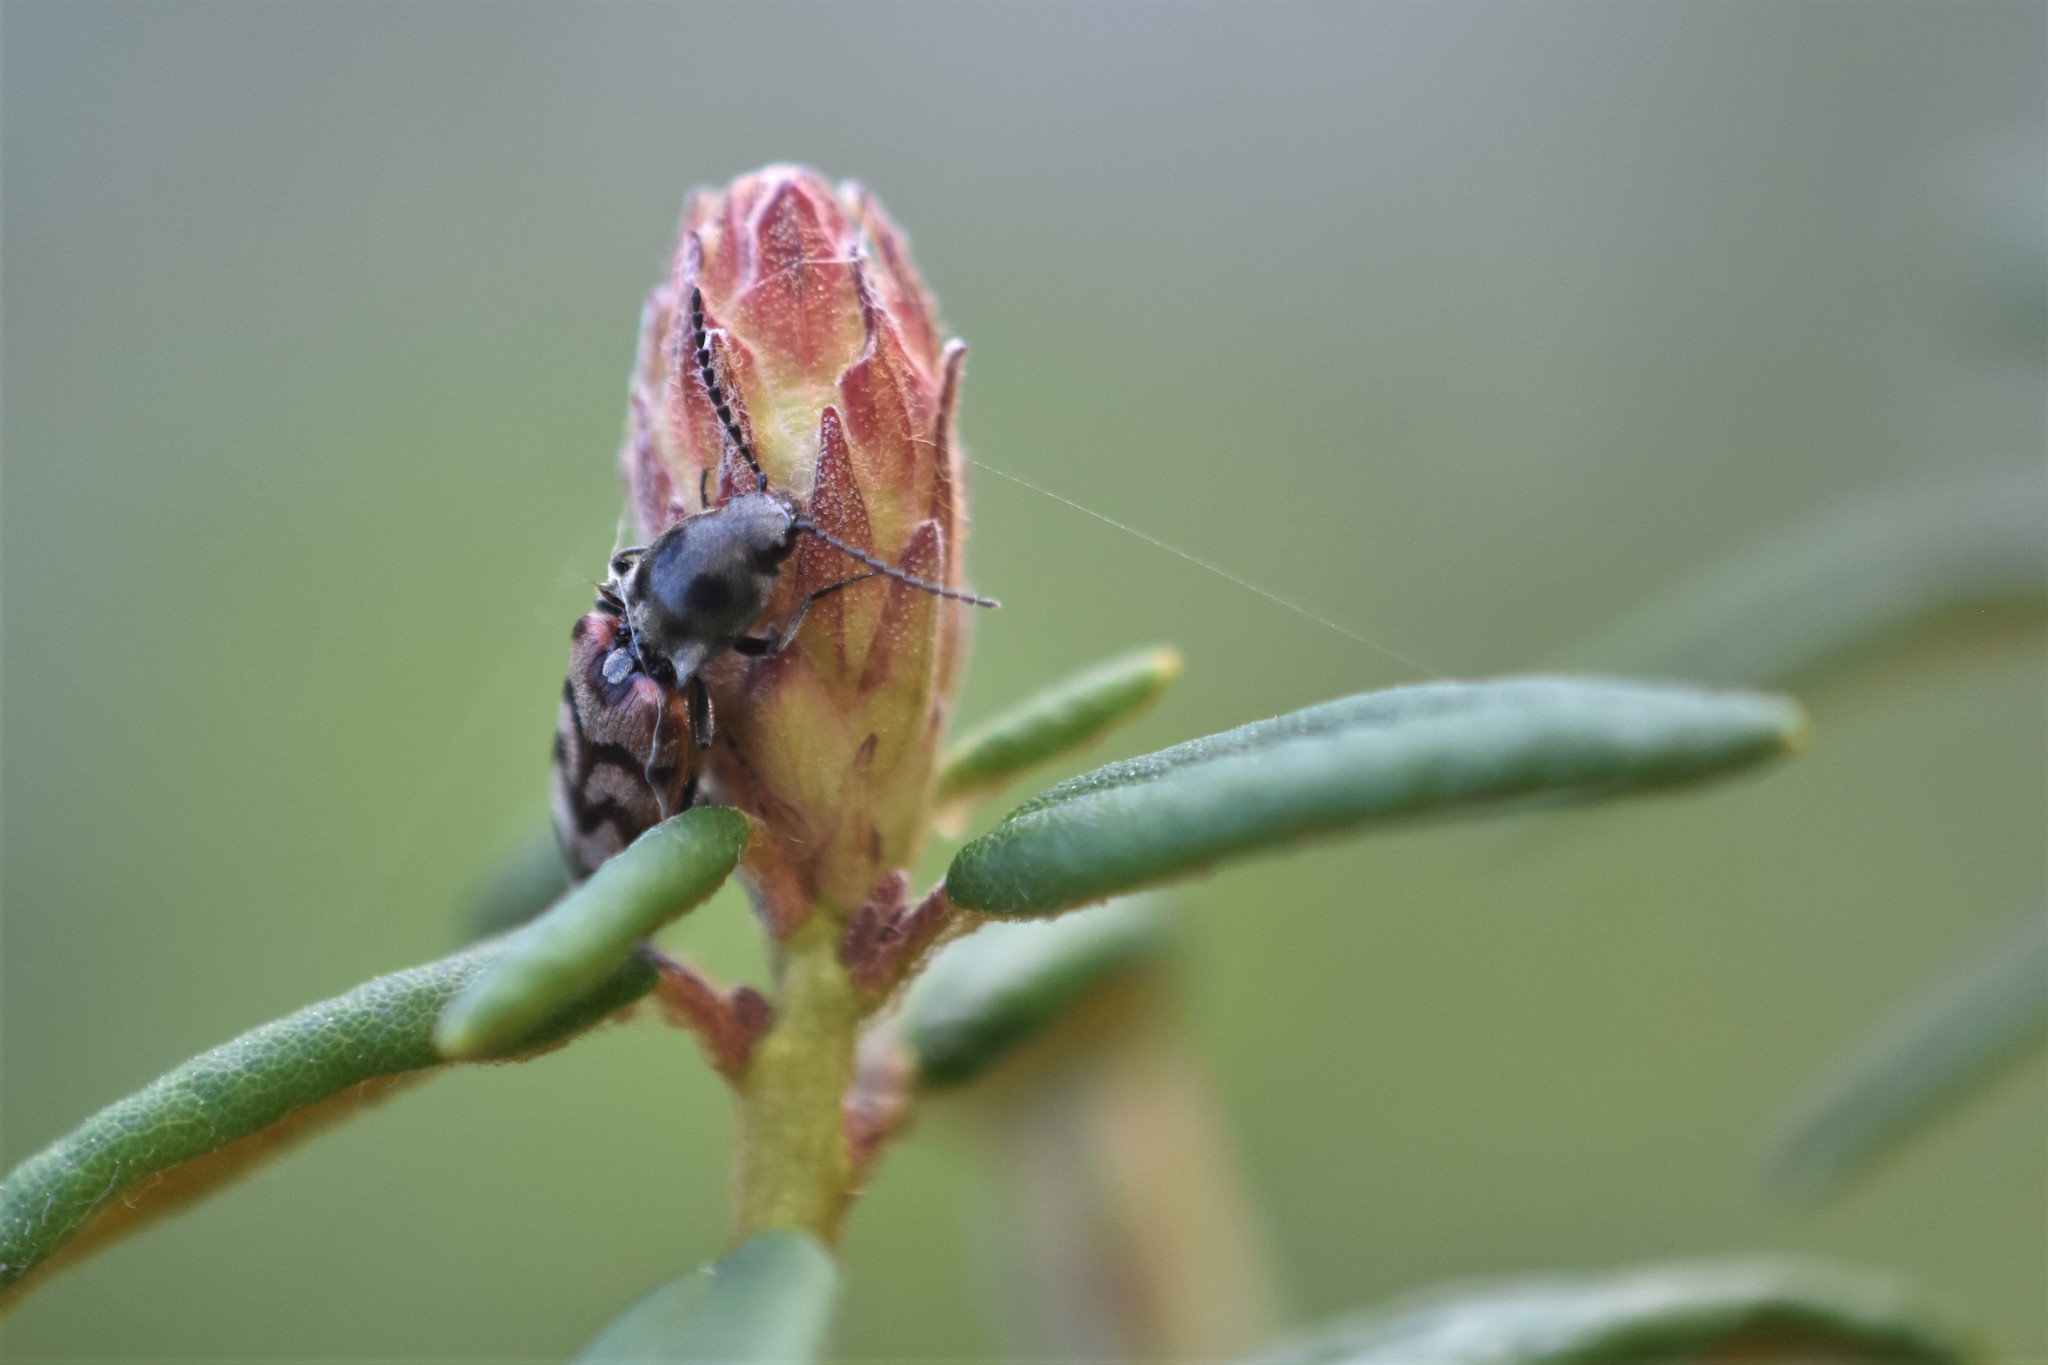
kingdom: Animalia
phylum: Arthropoda
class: Insecta
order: Coleoptera
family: Elateridae
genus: Pseudanostirus
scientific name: Pseudanostirus tigrinus
